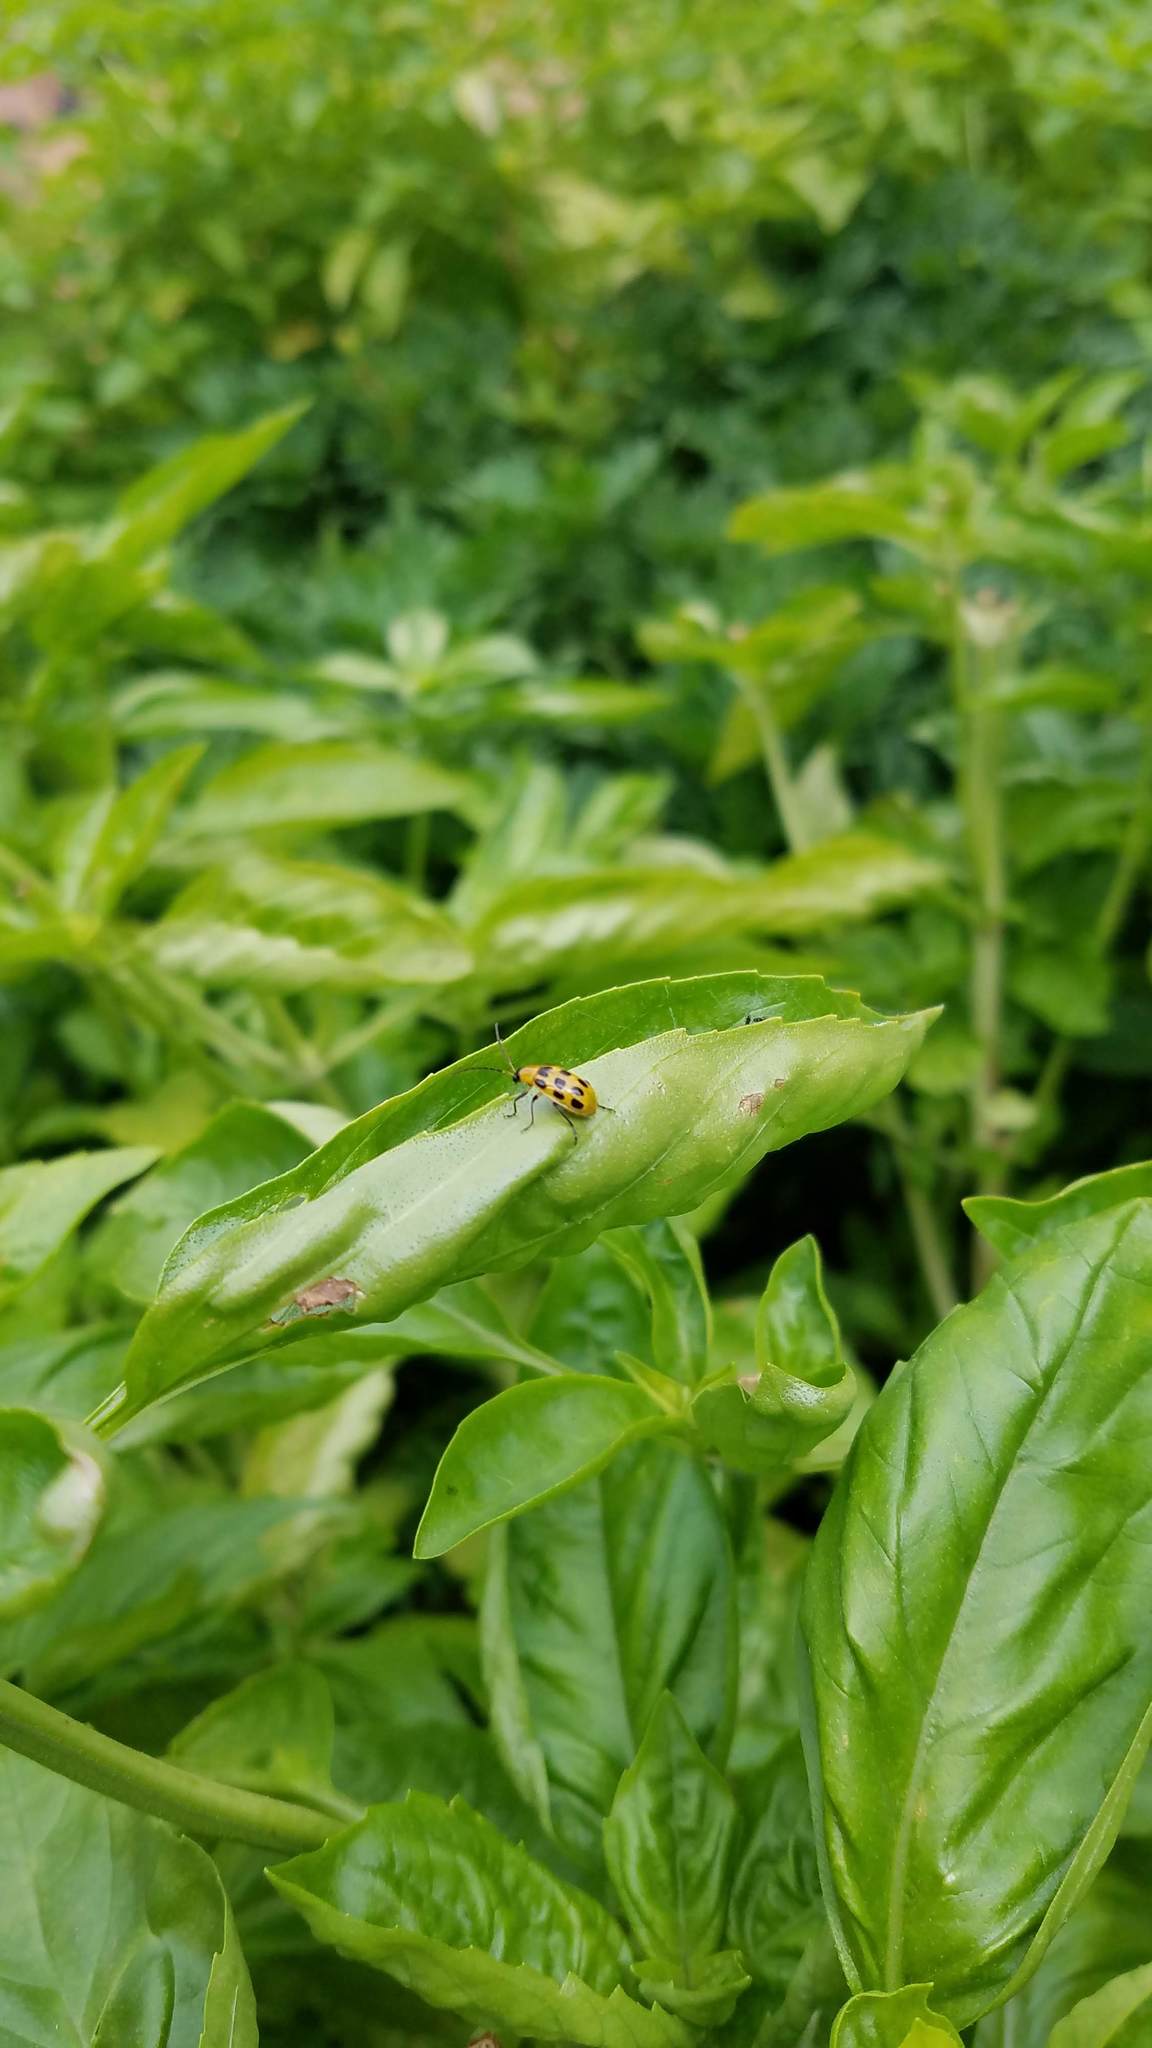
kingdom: Animalia
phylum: Arthropoda
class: Insecta
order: Coleoptera
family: Chrysomelidae
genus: Diabrotica
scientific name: Diabrotica undecimpunctata
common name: Spotted cucumber beetle
